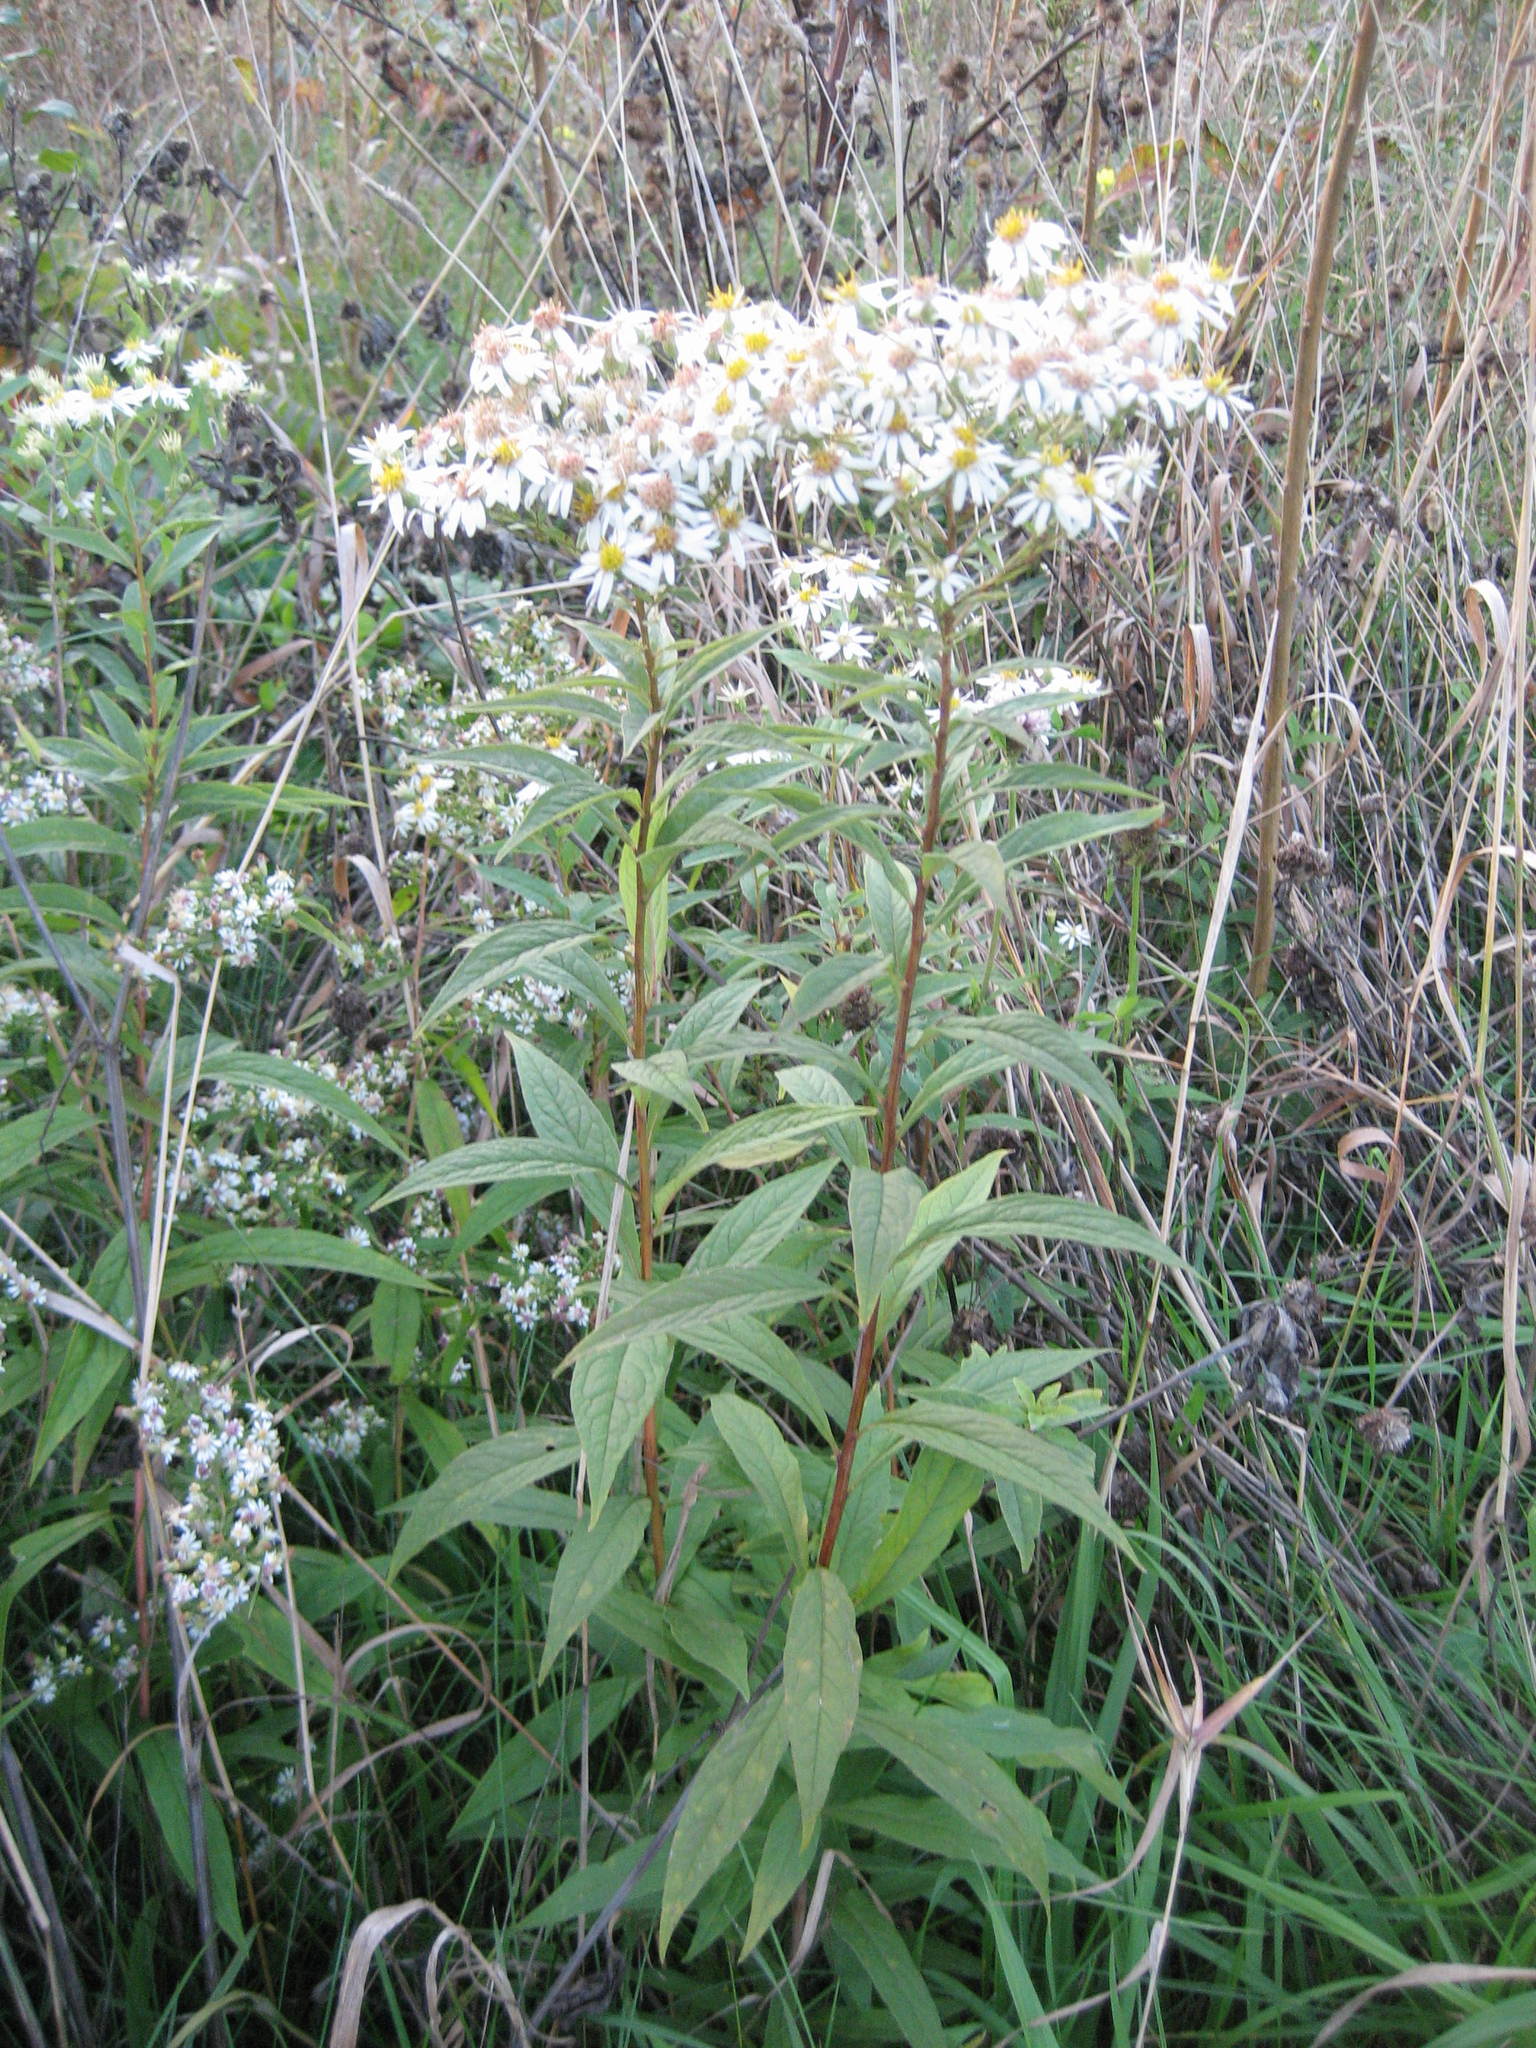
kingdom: Plantae
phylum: Tracheophyta
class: Magnoliopsida
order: Asterales
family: Asteraceae
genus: Doellingeria
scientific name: Doellingeria umbellata
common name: Flat-top white aster
